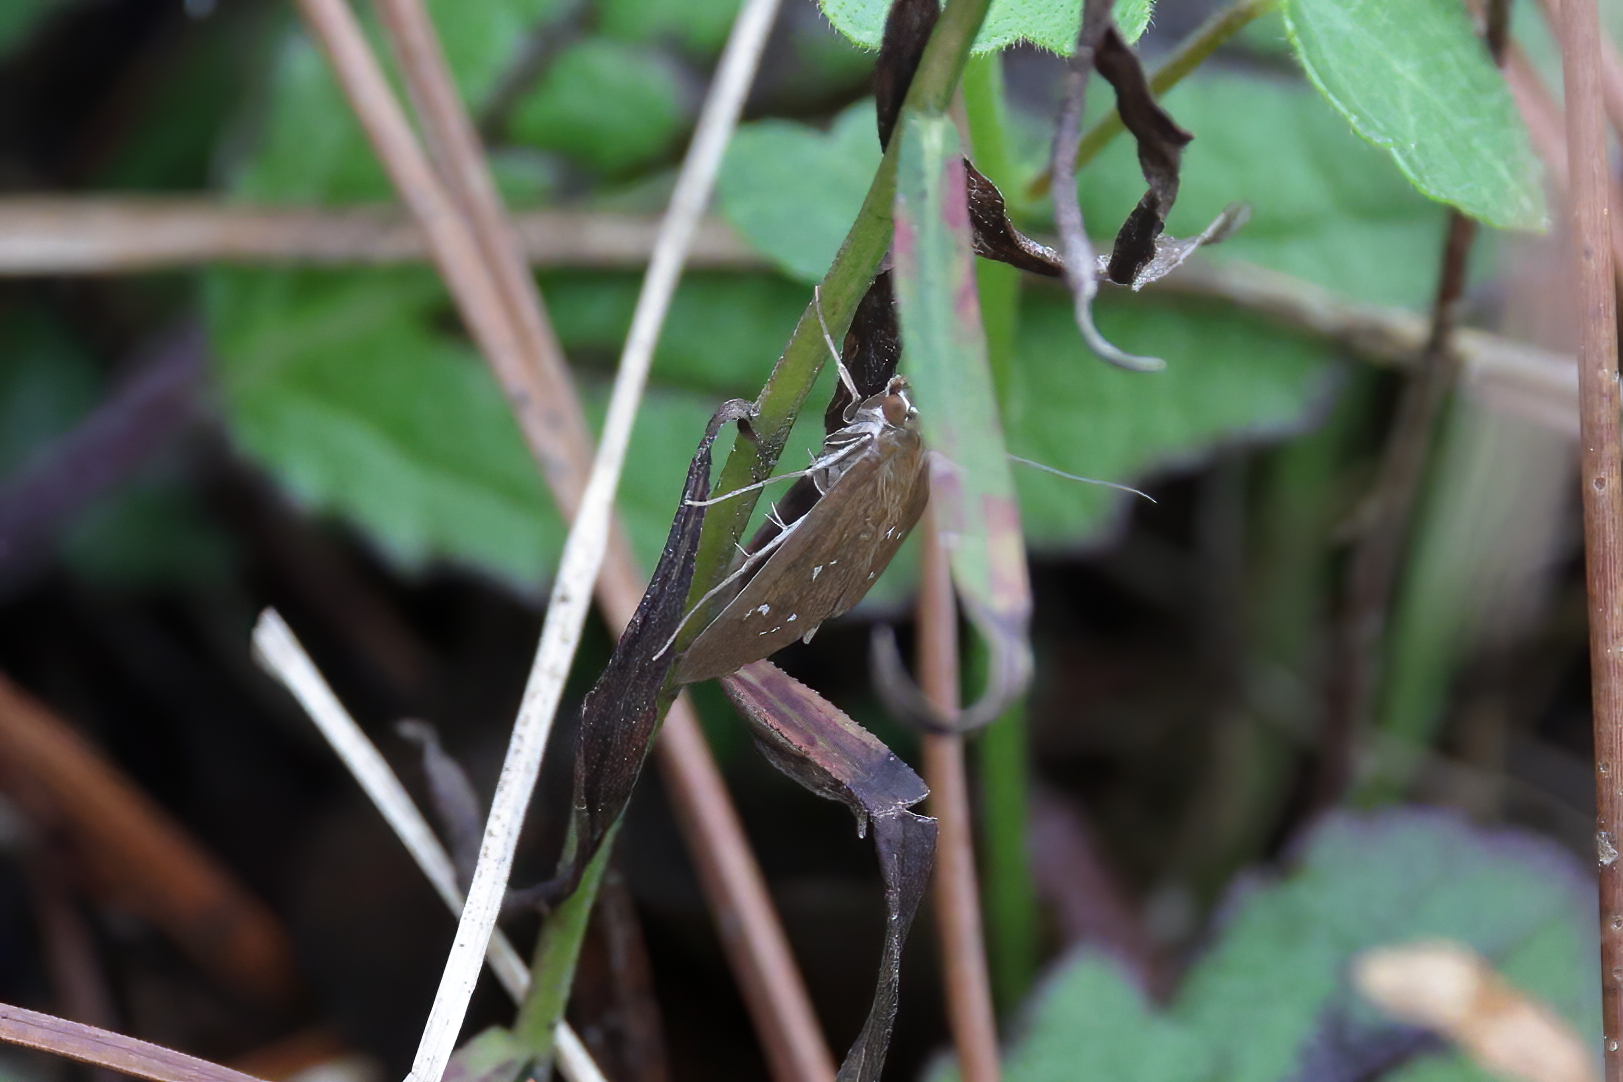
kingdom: Animalia
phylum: Arthropoda
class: Insecta
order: Lepidoptera
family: Crambidae
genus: Diastictis
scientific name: Diastictis ventralis
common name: White-spotted brown
